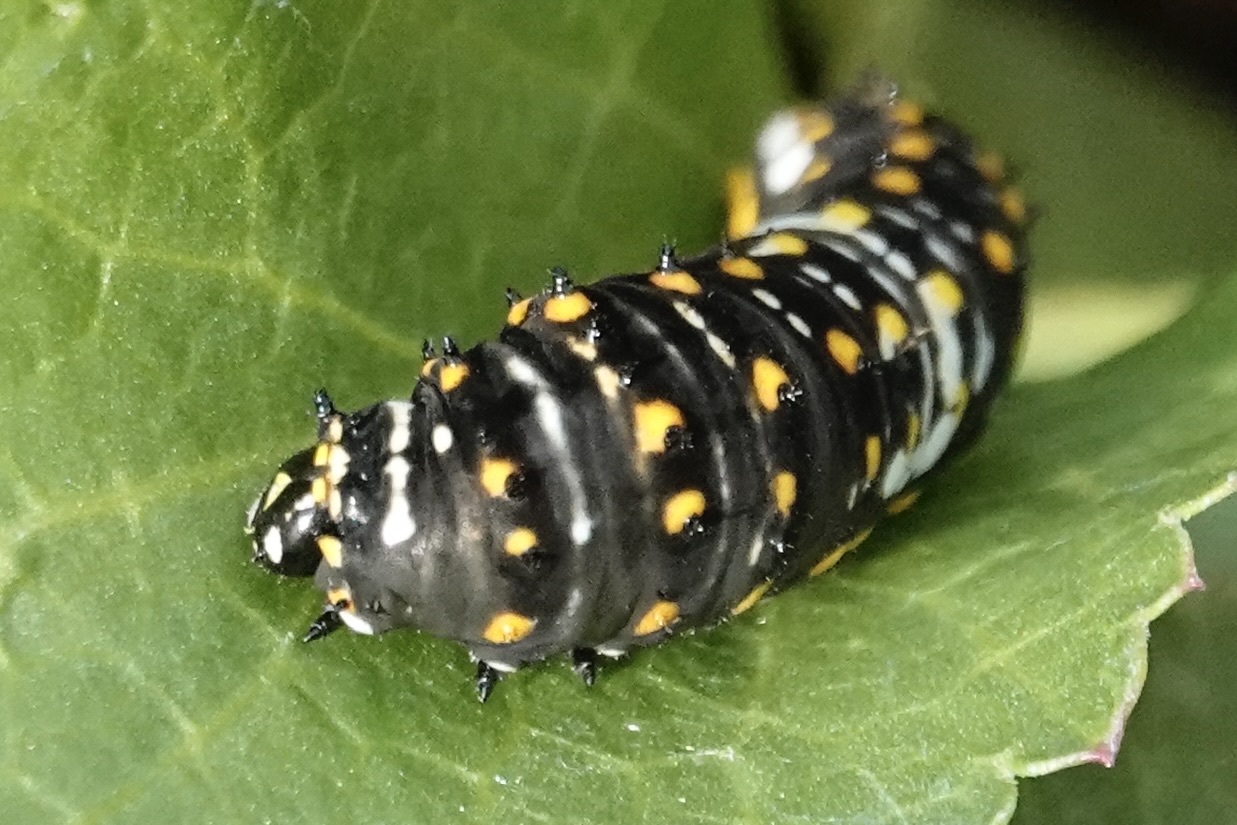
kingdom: Animalia
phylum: Arthropoda
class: Insecta
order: Lepidoptera
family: Papilionidae
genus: Papilio
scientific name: Papilio polyxenes
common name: Black swallowtail
